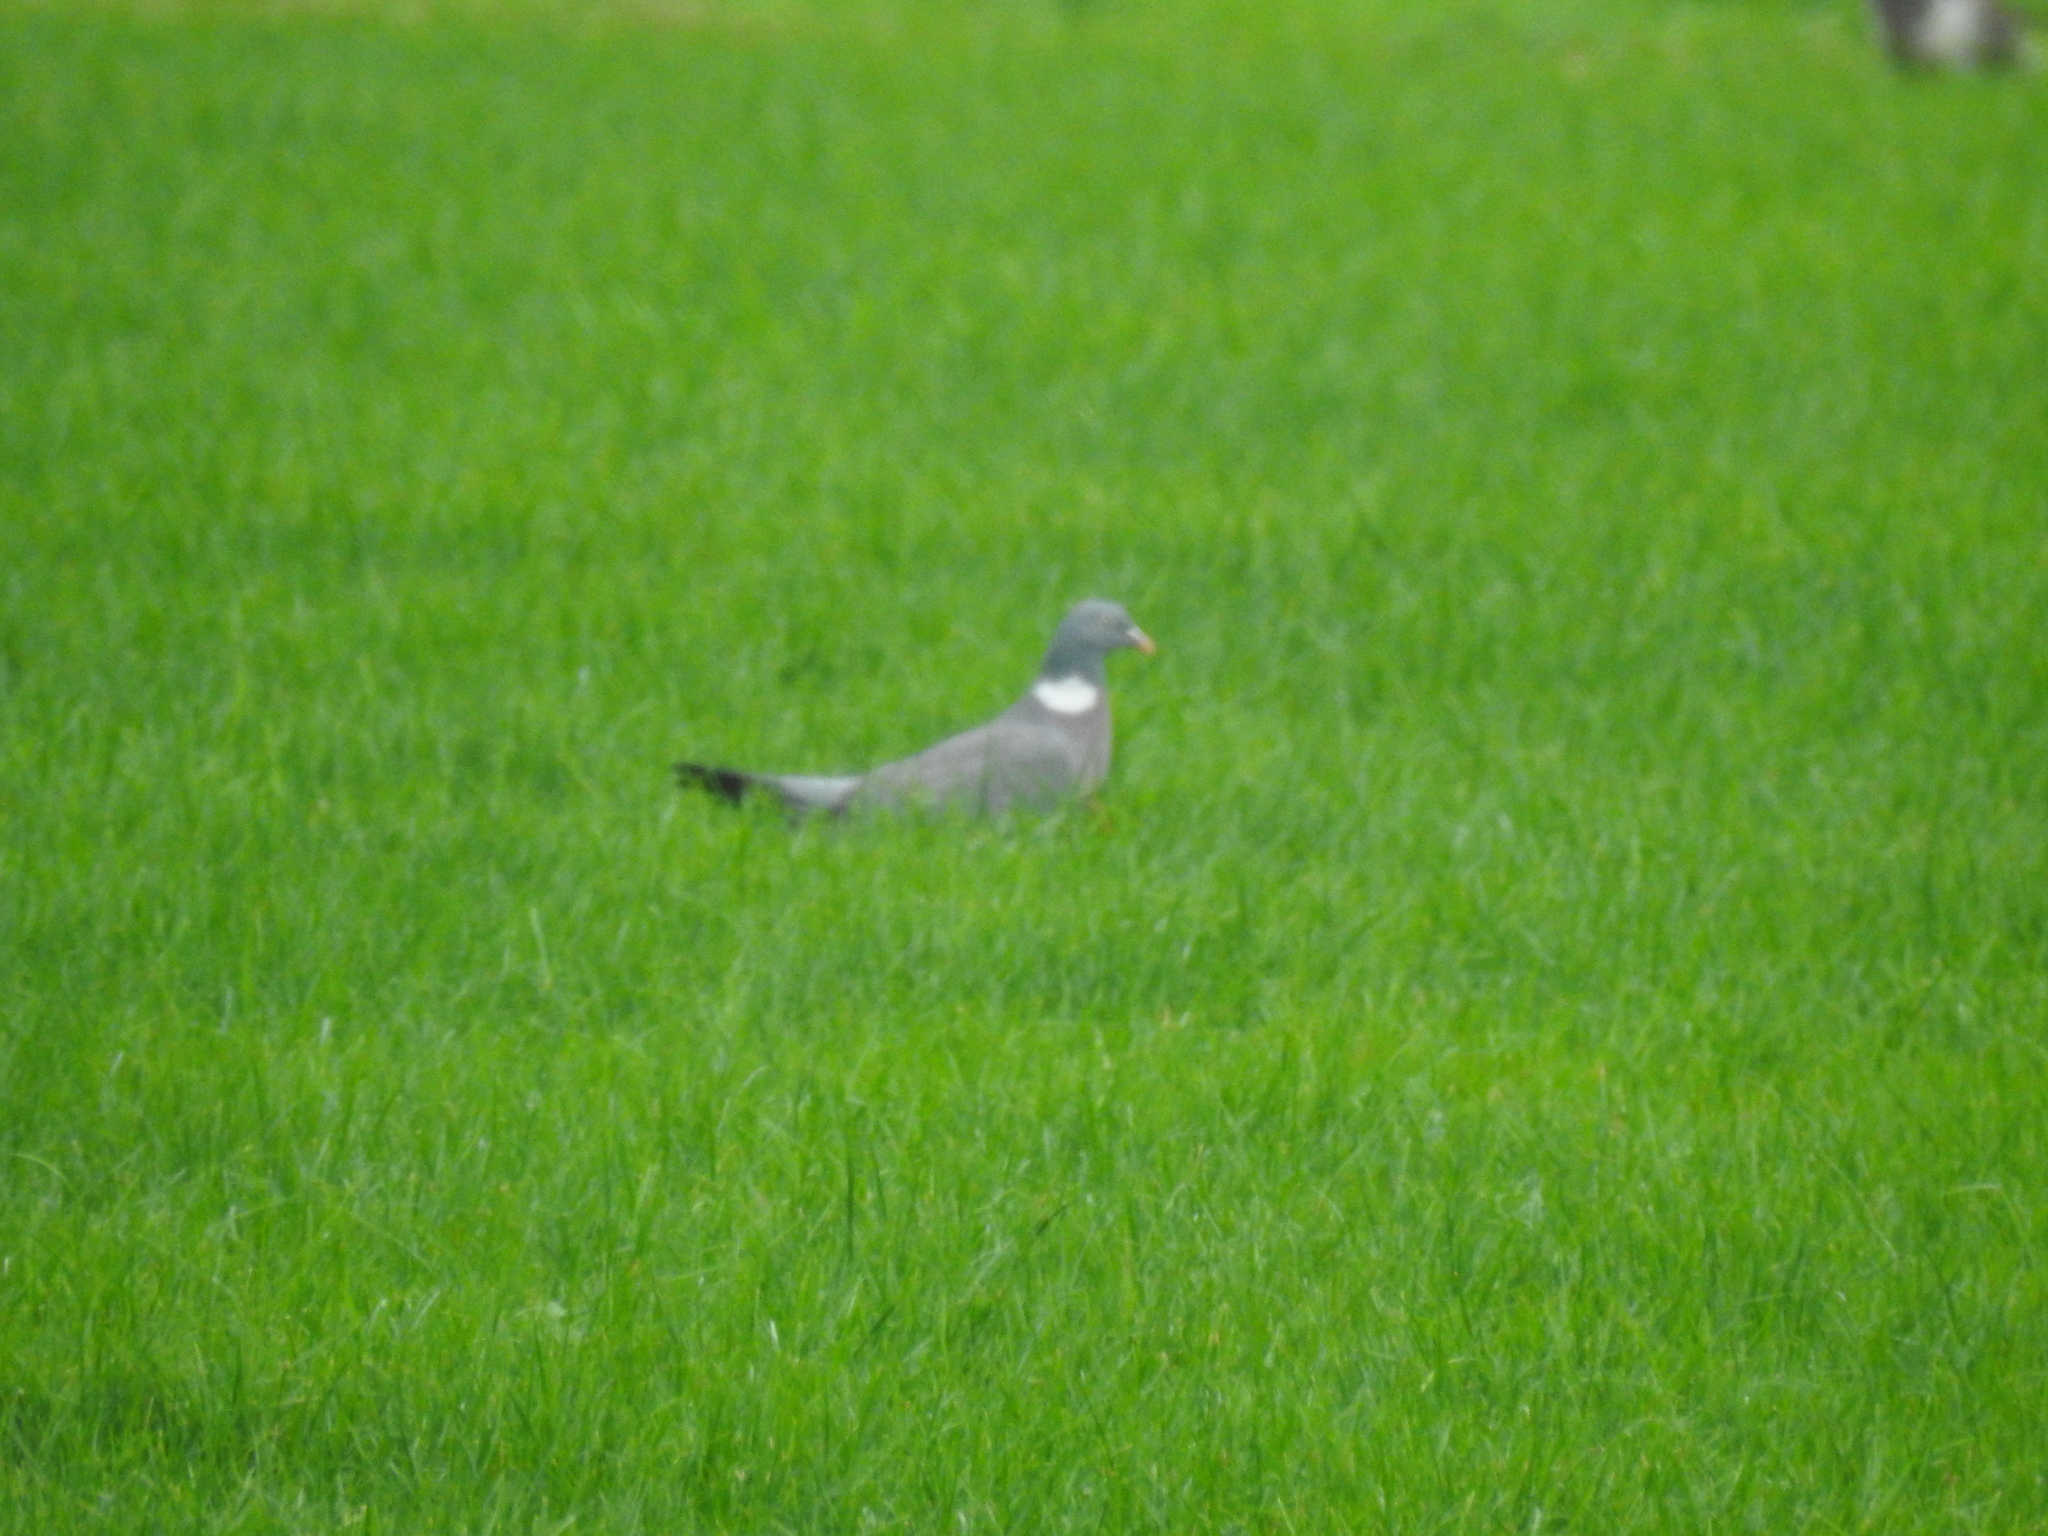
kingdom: Animalia
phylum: Chordata
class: Aves
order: Columbiformes
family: Columbidae
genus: Columba
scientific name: Columba palumbus
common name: Common wood pigeon
